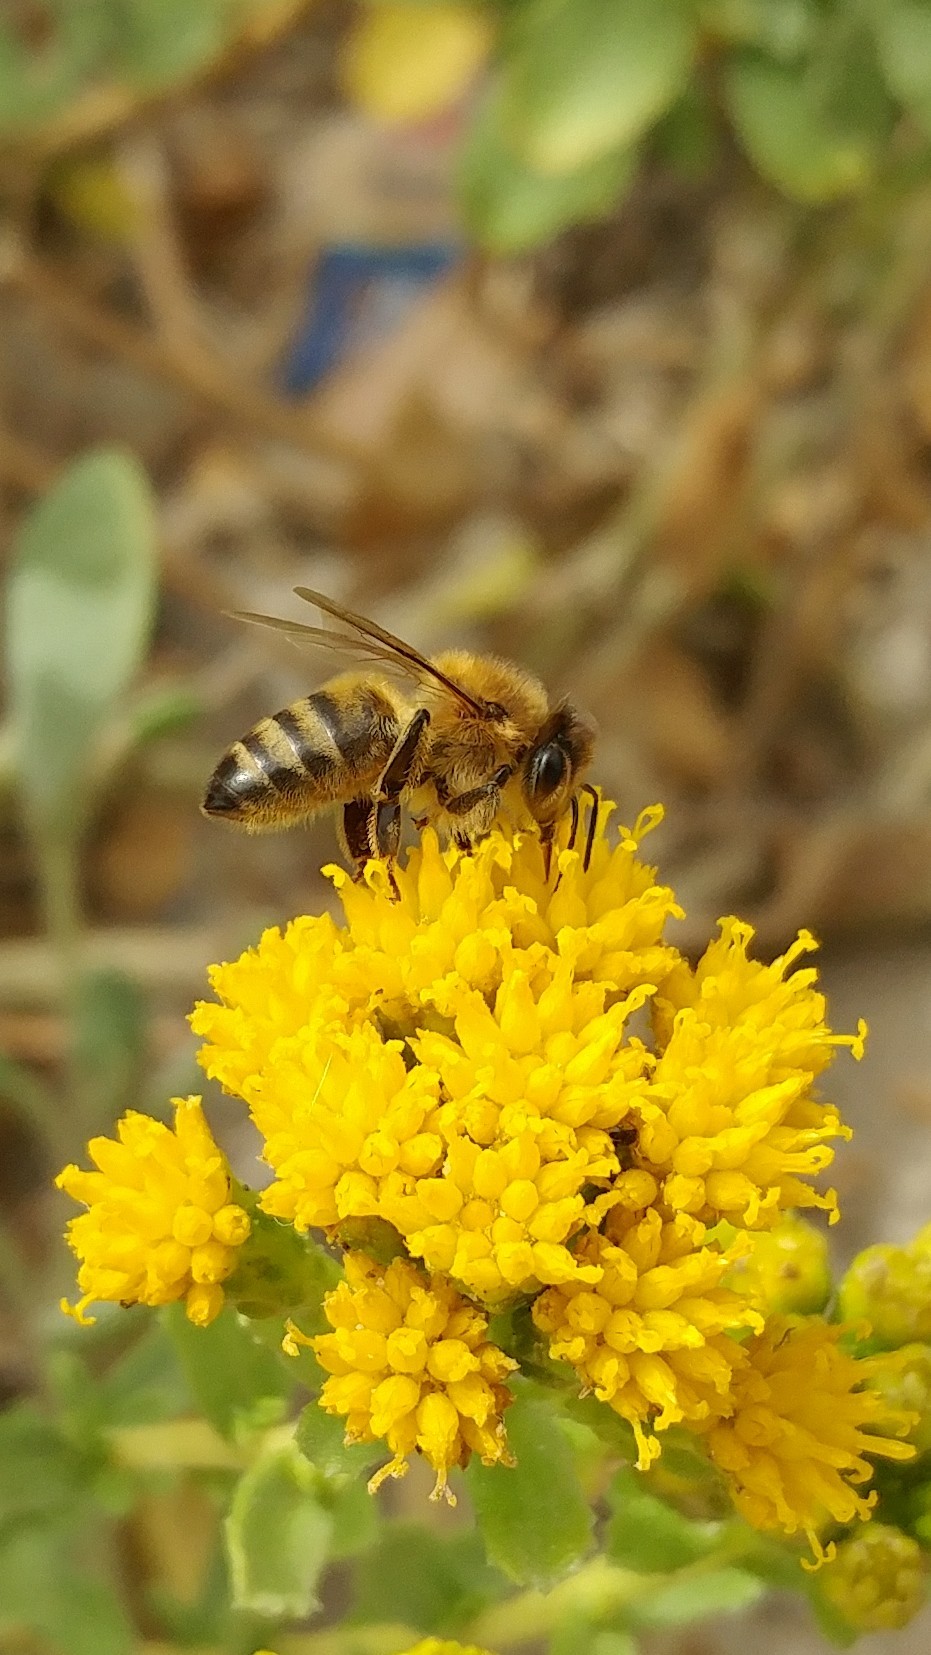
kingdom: Animalia
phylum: Arthropoda
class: Insecta
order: Hymenoptera
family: Apidae
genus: Apis
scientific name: Apis mellifera
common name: Honey bee
